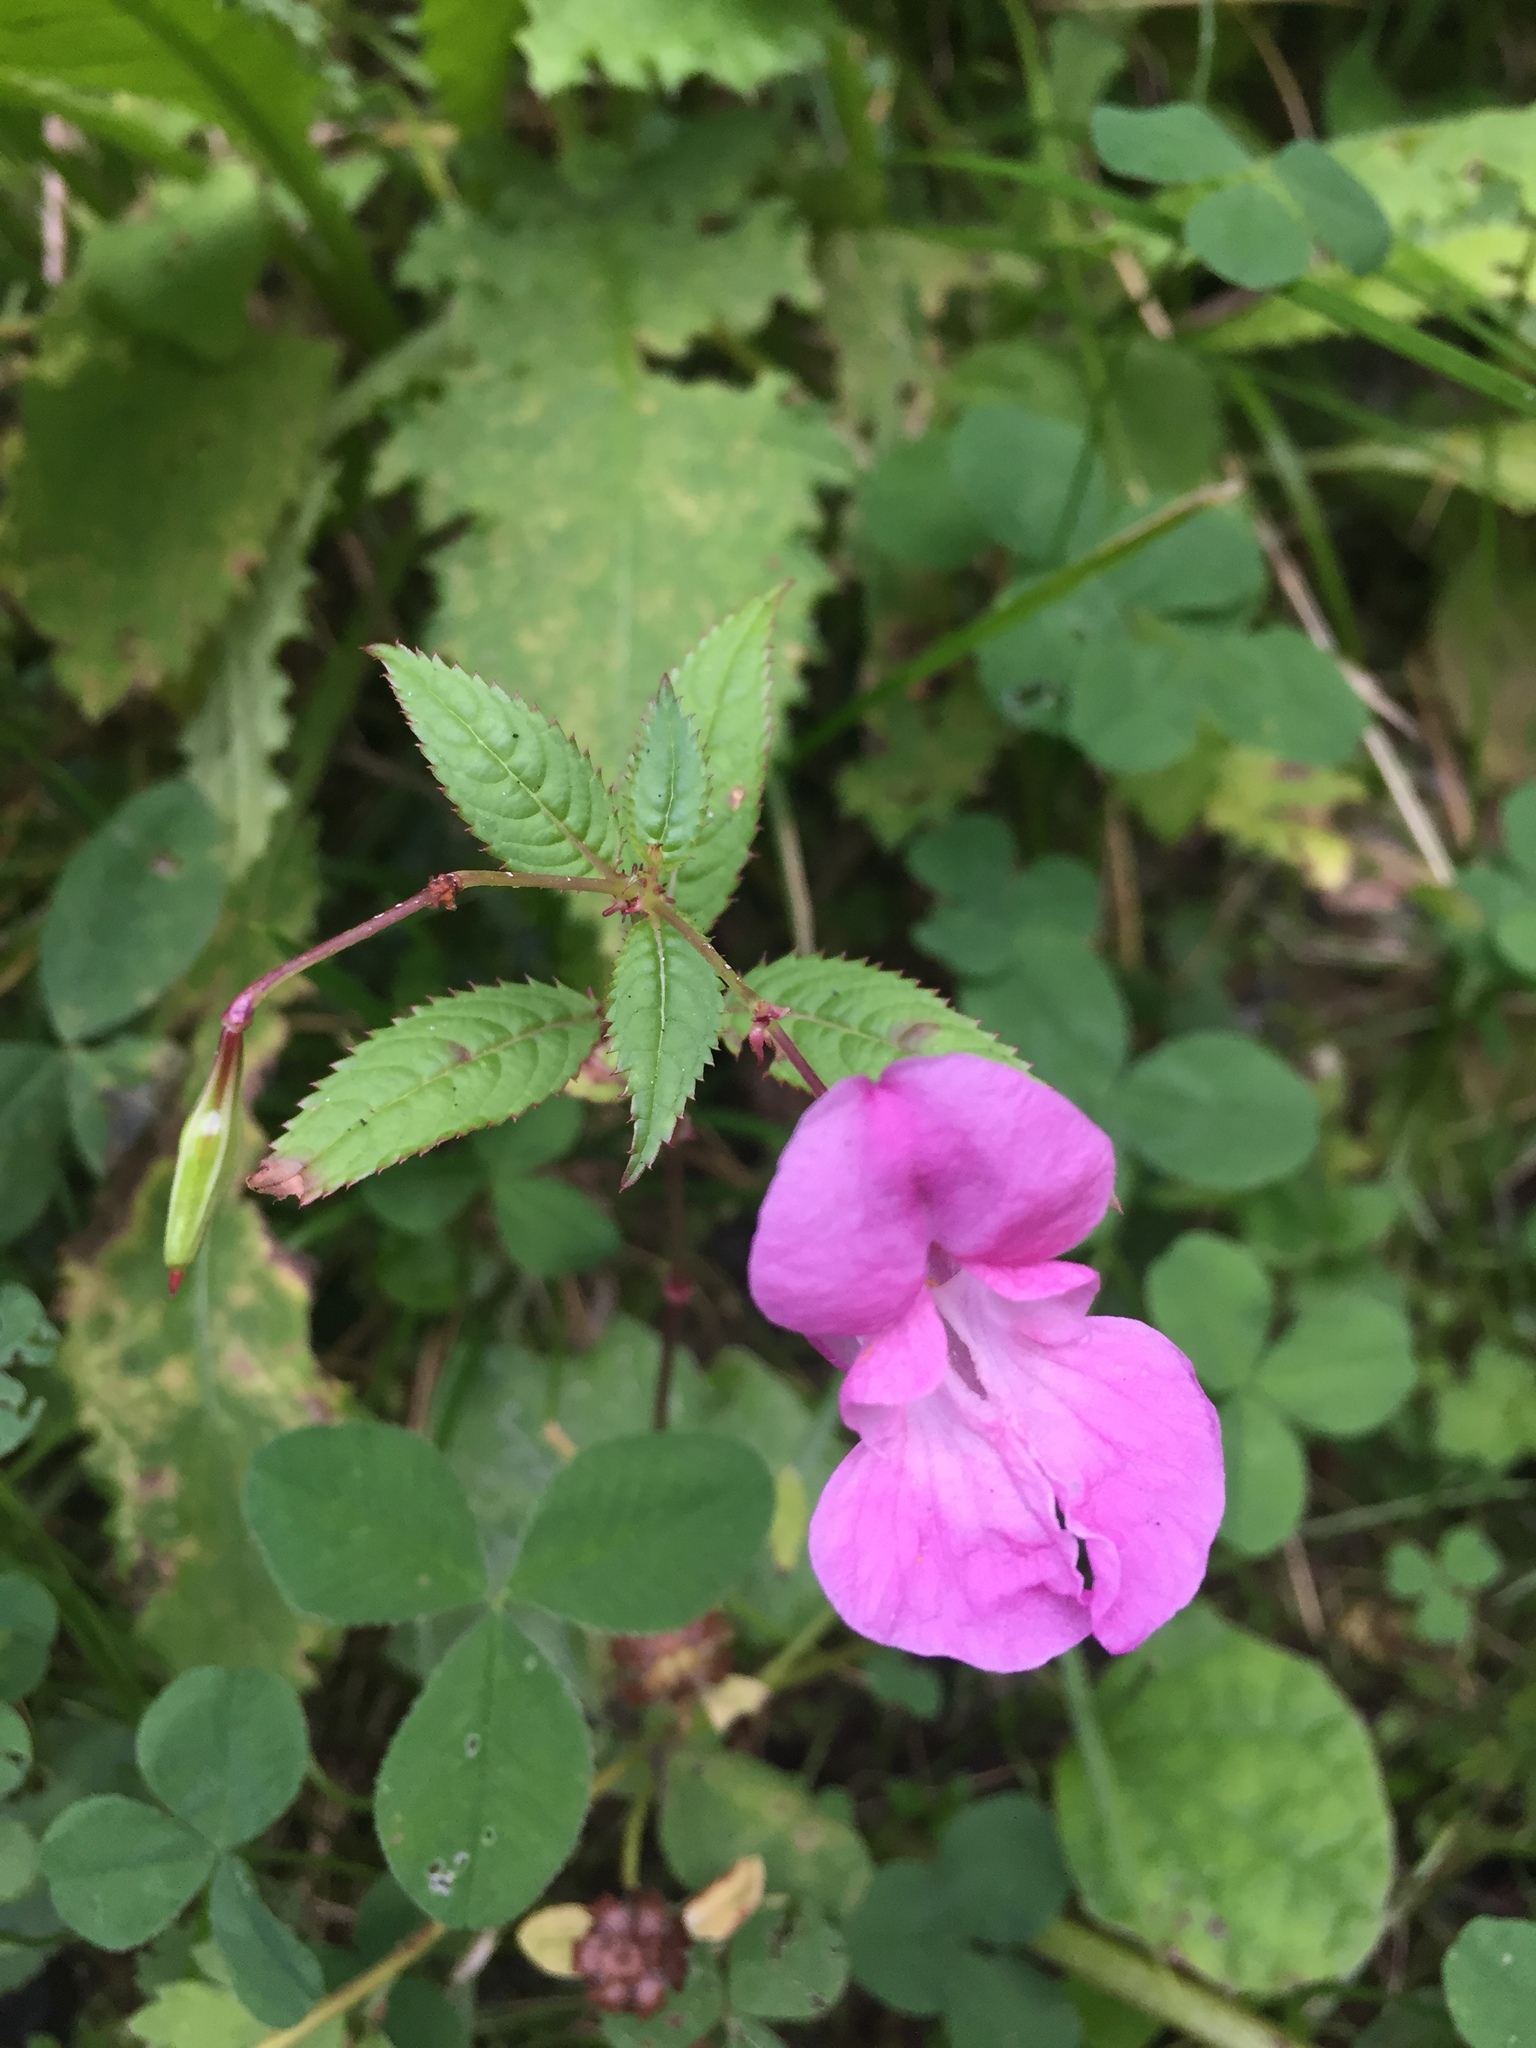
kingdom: Plantae
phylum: Tracheophyta
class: Magnoliopsida
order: Ericales
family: Balsaminaceae
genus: Impatiens
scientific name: Impatiens glandulifera
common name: Himalayan balsam
